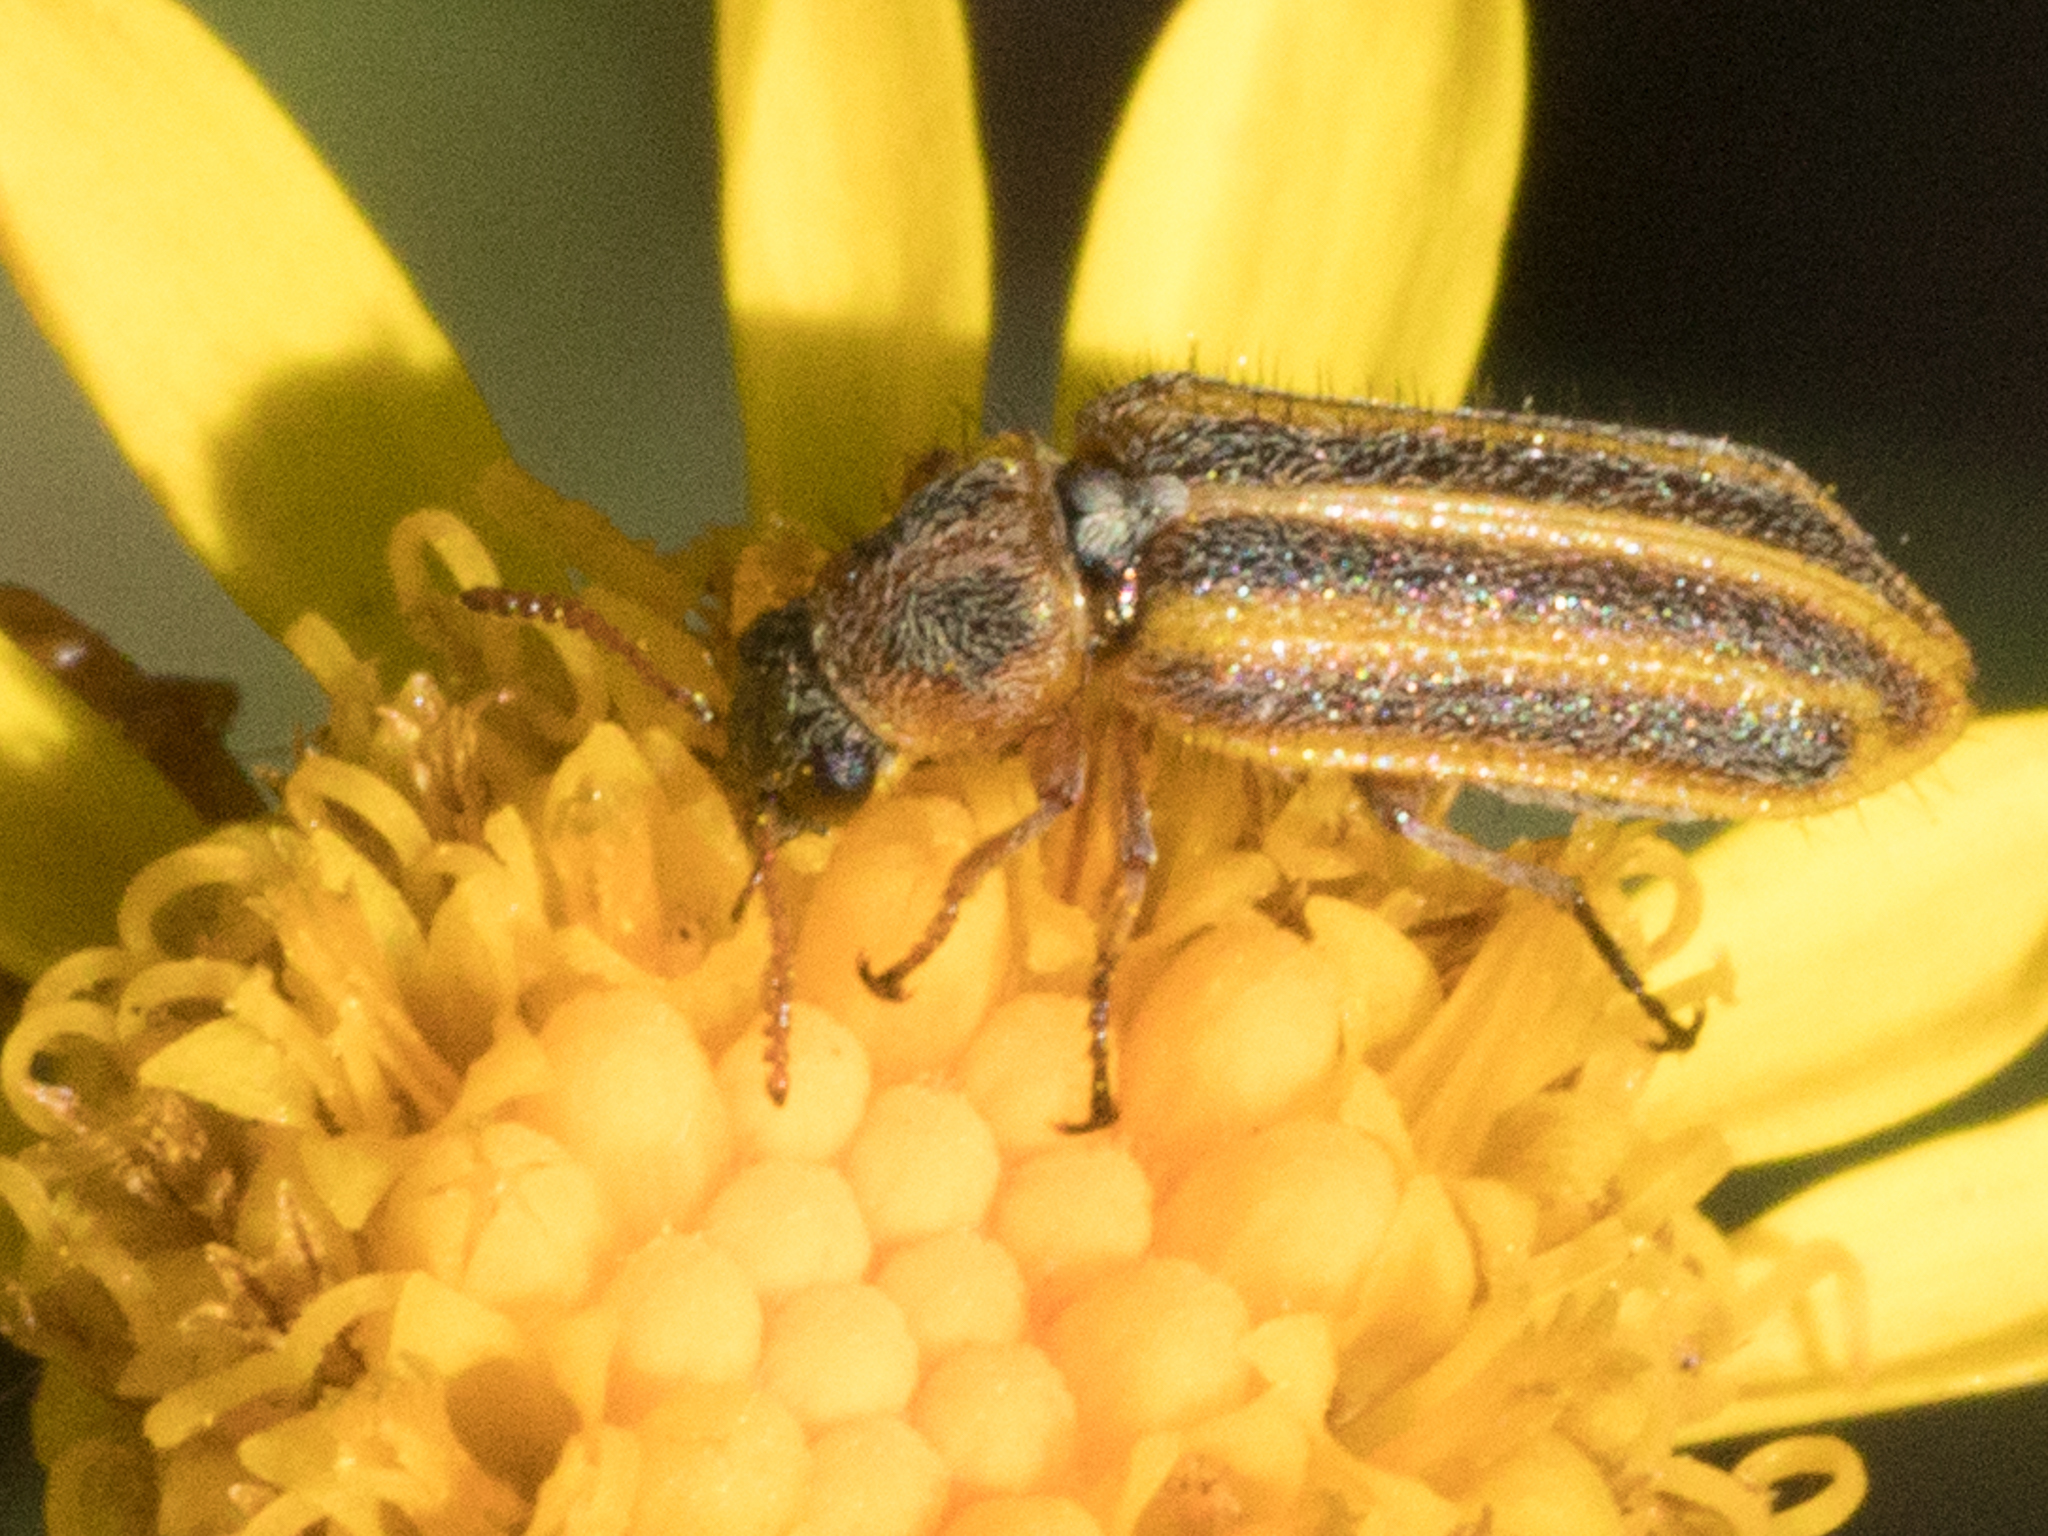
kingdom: Animalia
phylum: Arthropoda
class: Insecta
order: Coleoptera
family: Melyridae
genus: Astylus
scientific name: Astylus
